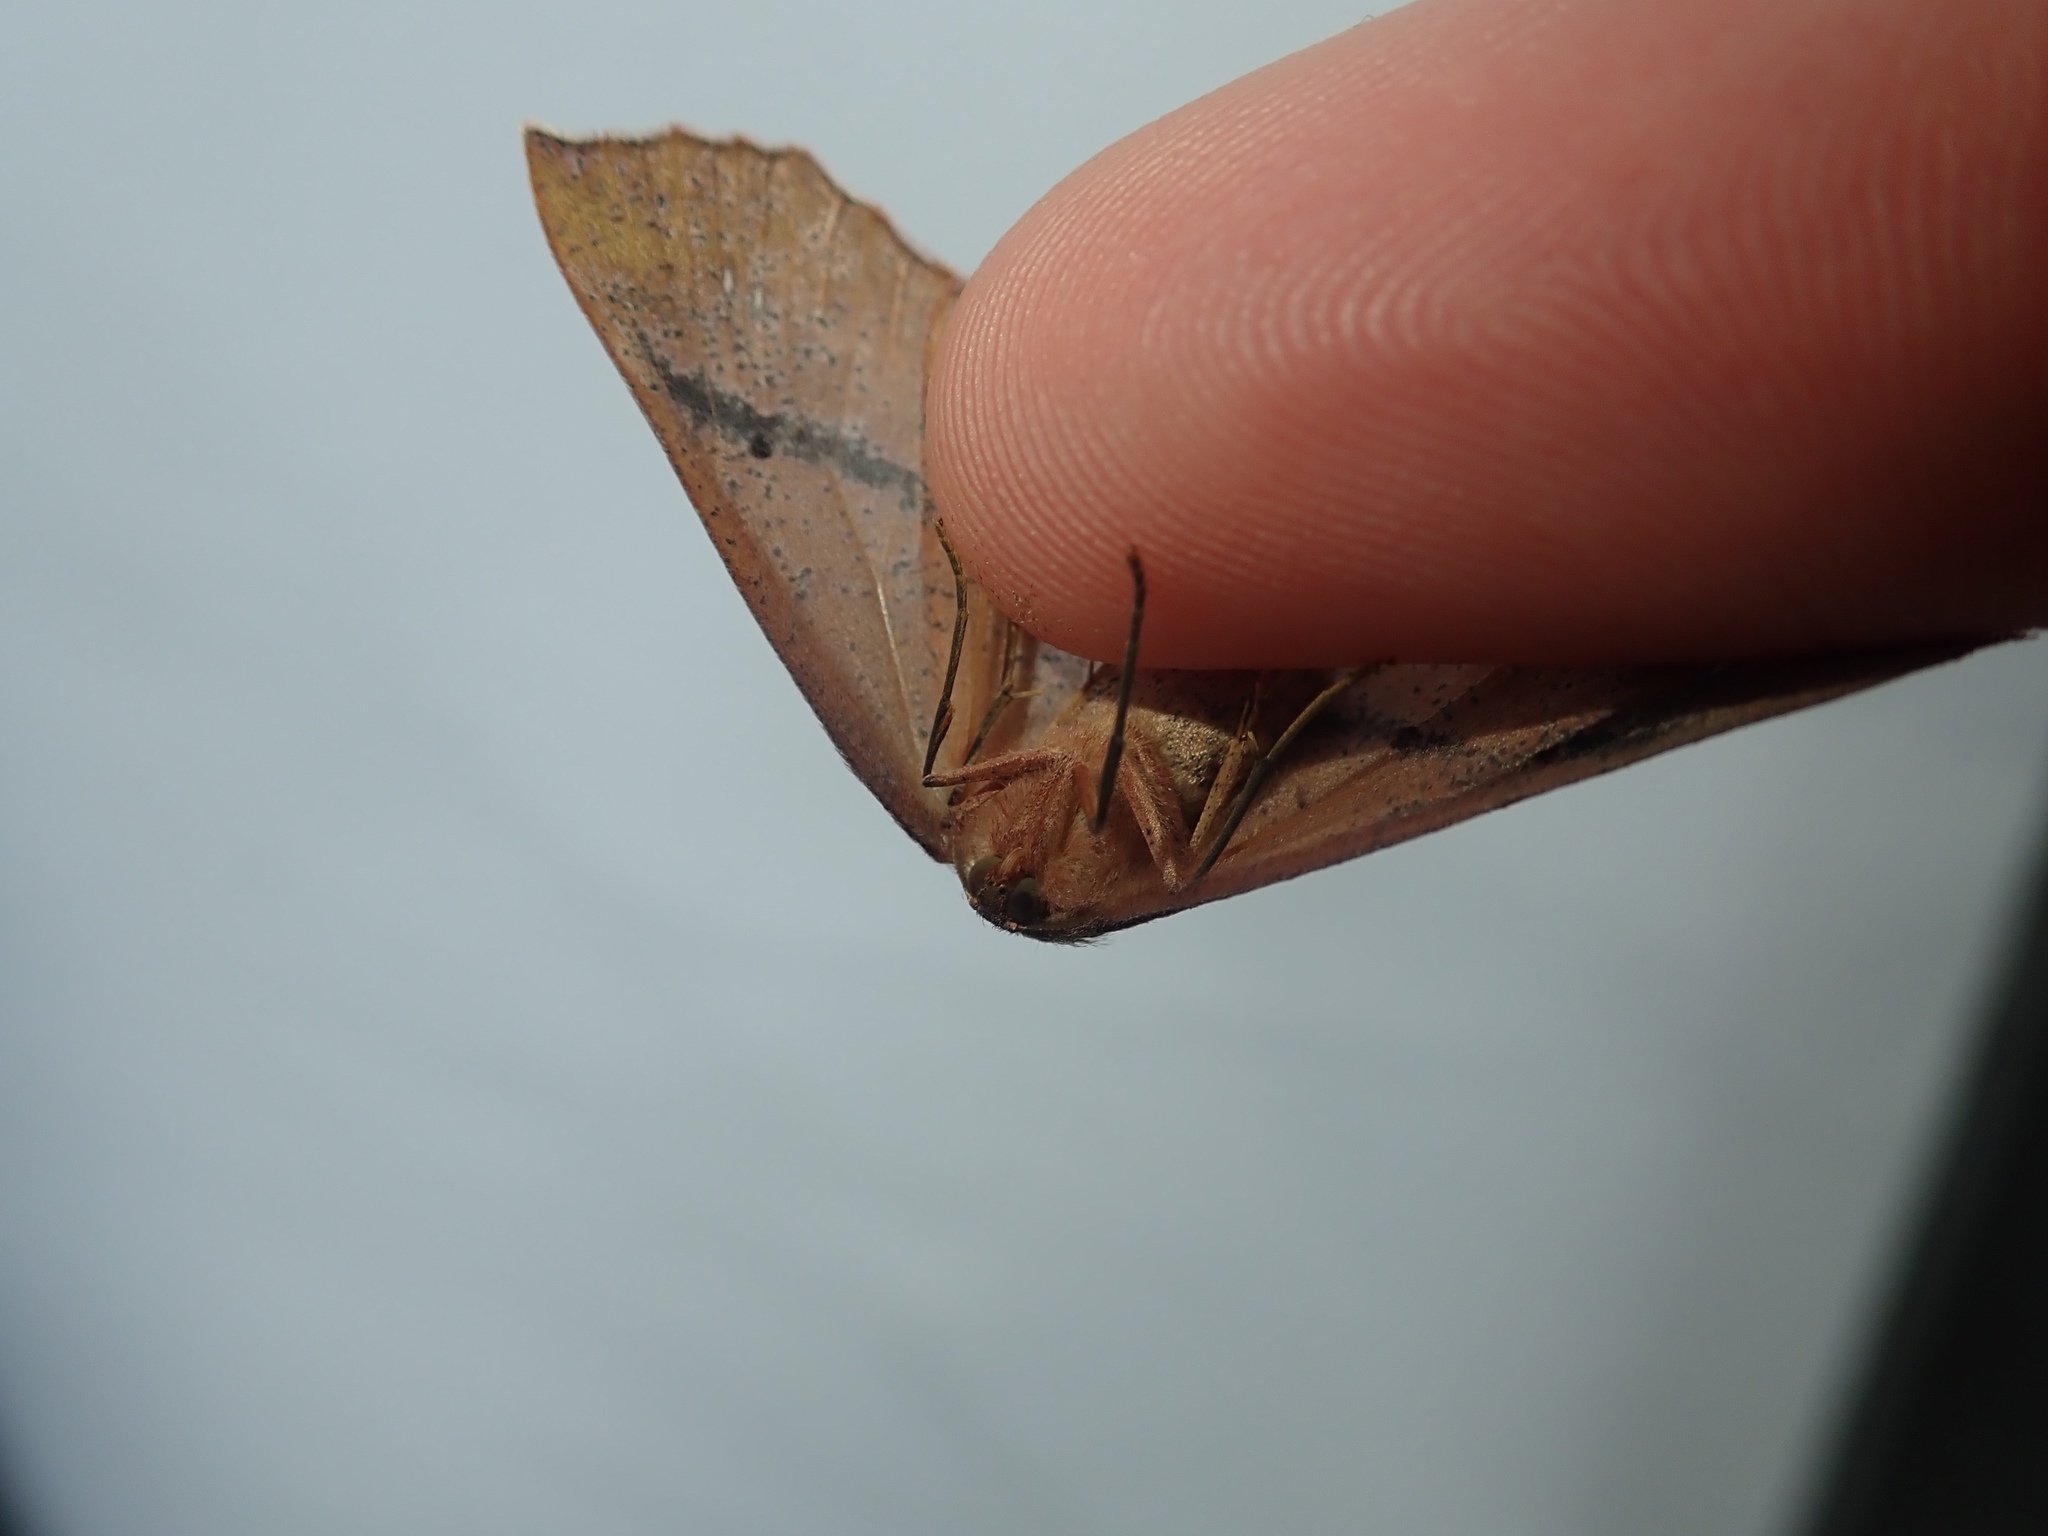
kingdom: Animalia
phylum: Arthropoda
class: Insecta
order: Lepidoptera
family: Geometridae
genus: Xyridacma
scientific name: Xyridacma ustaria
